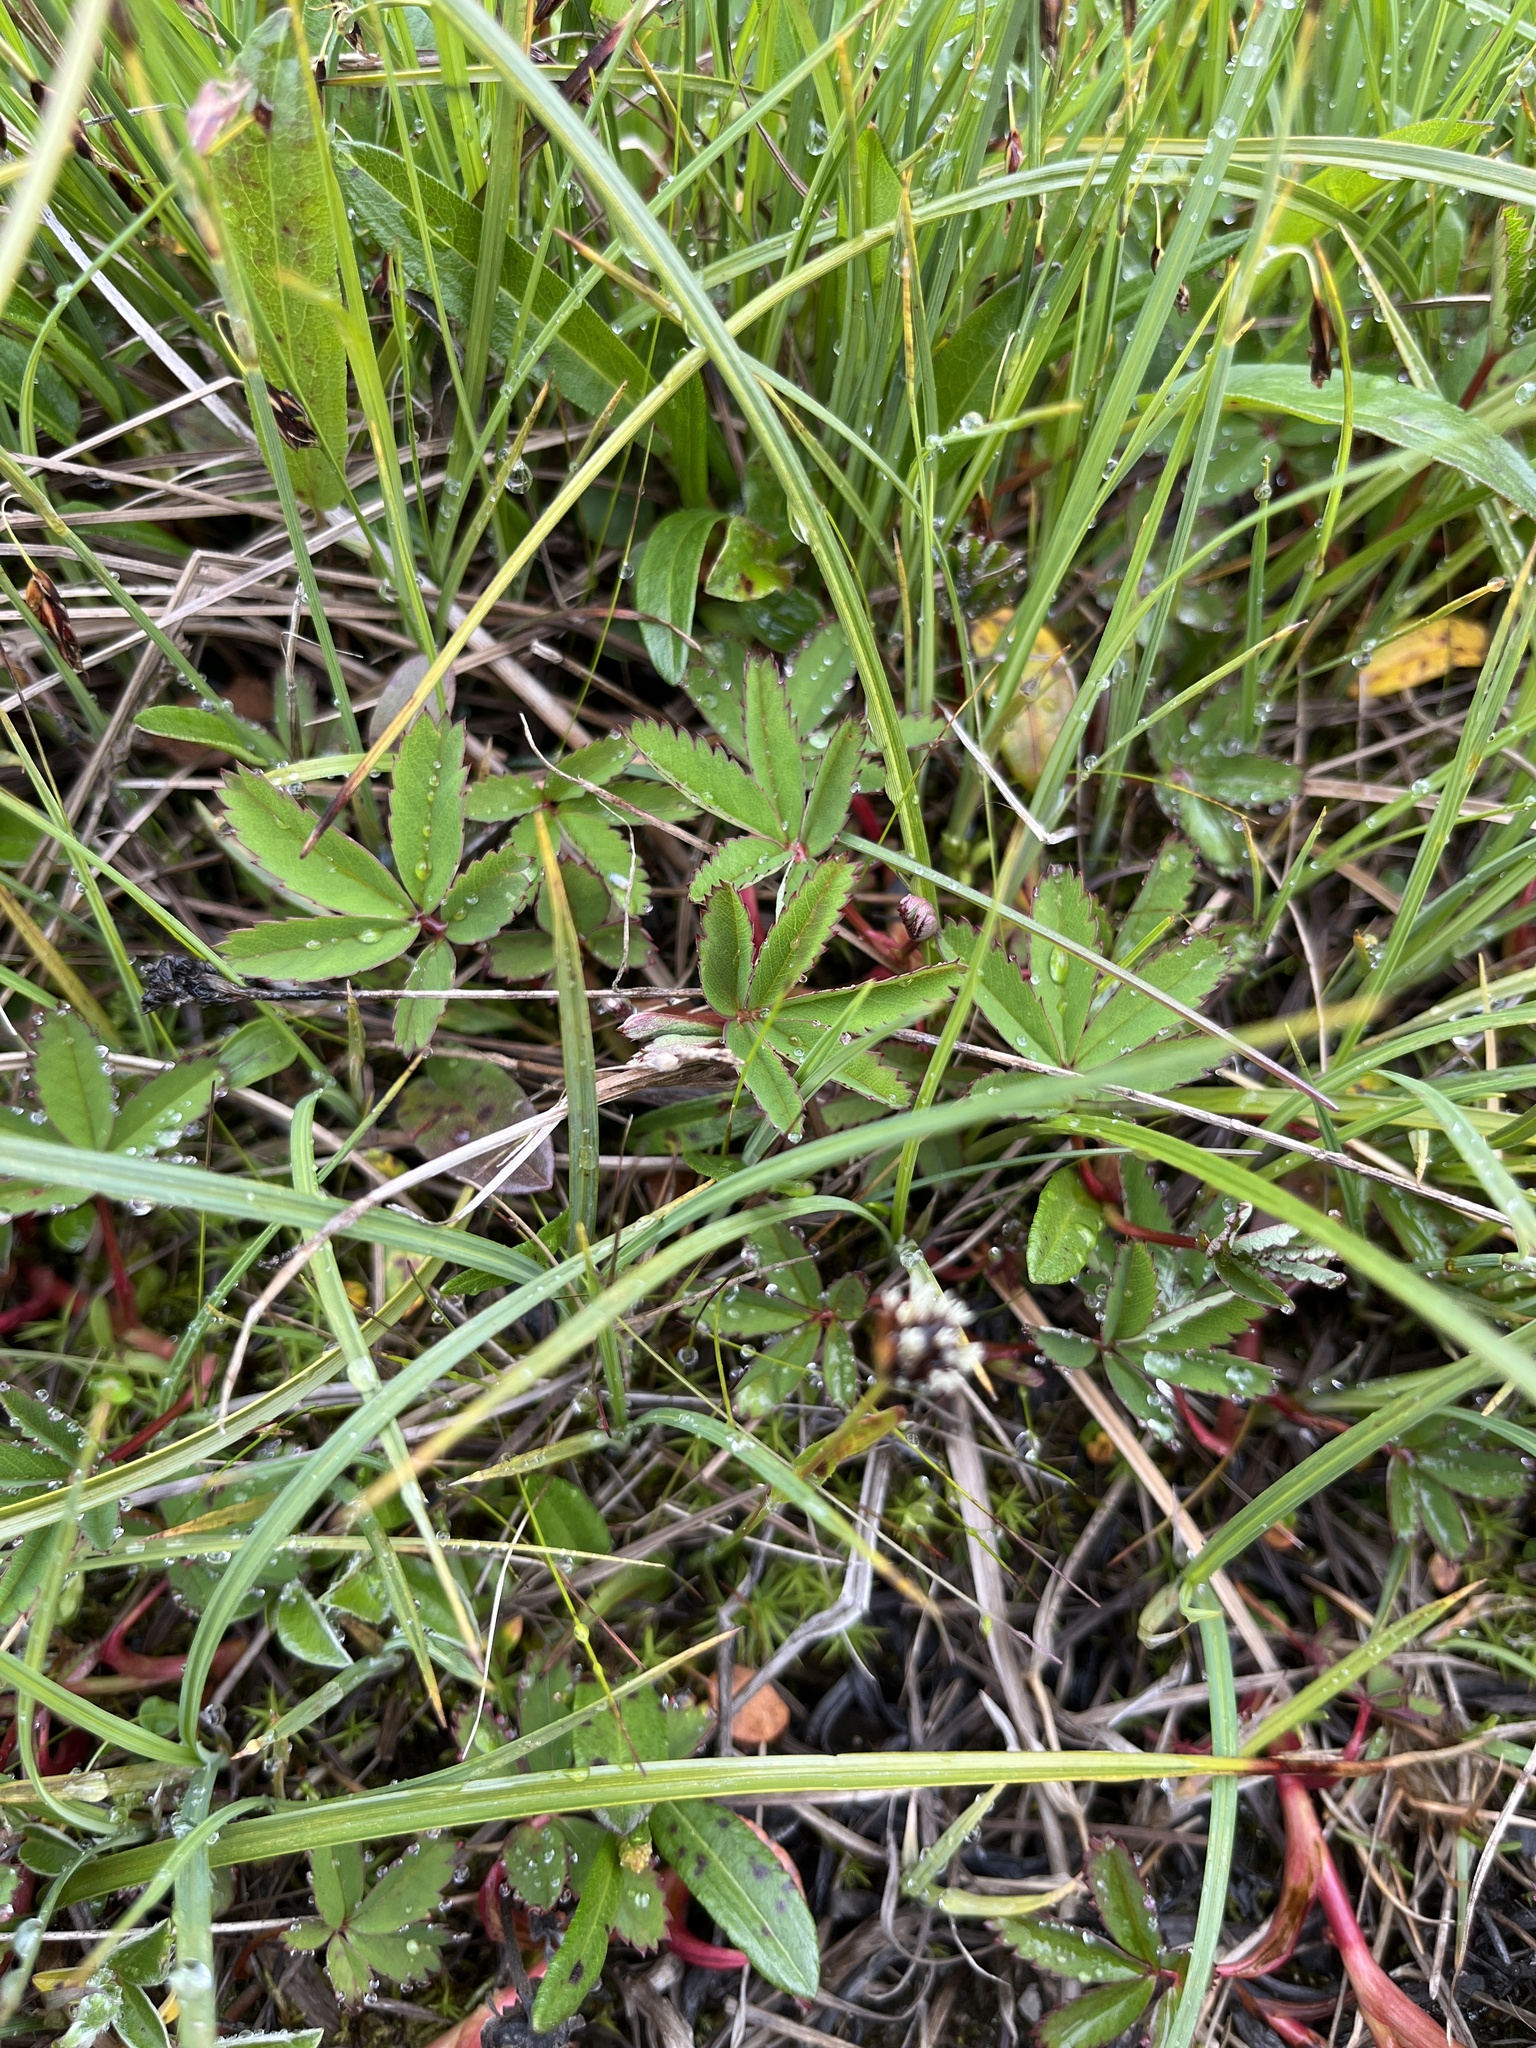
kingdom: Plantae
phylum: Tracheophyta
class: Magnoliopsida
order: Rosales
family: Rosaceae
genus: Comarum
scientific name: Comarum palustre
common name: Marsh cinquefoil
